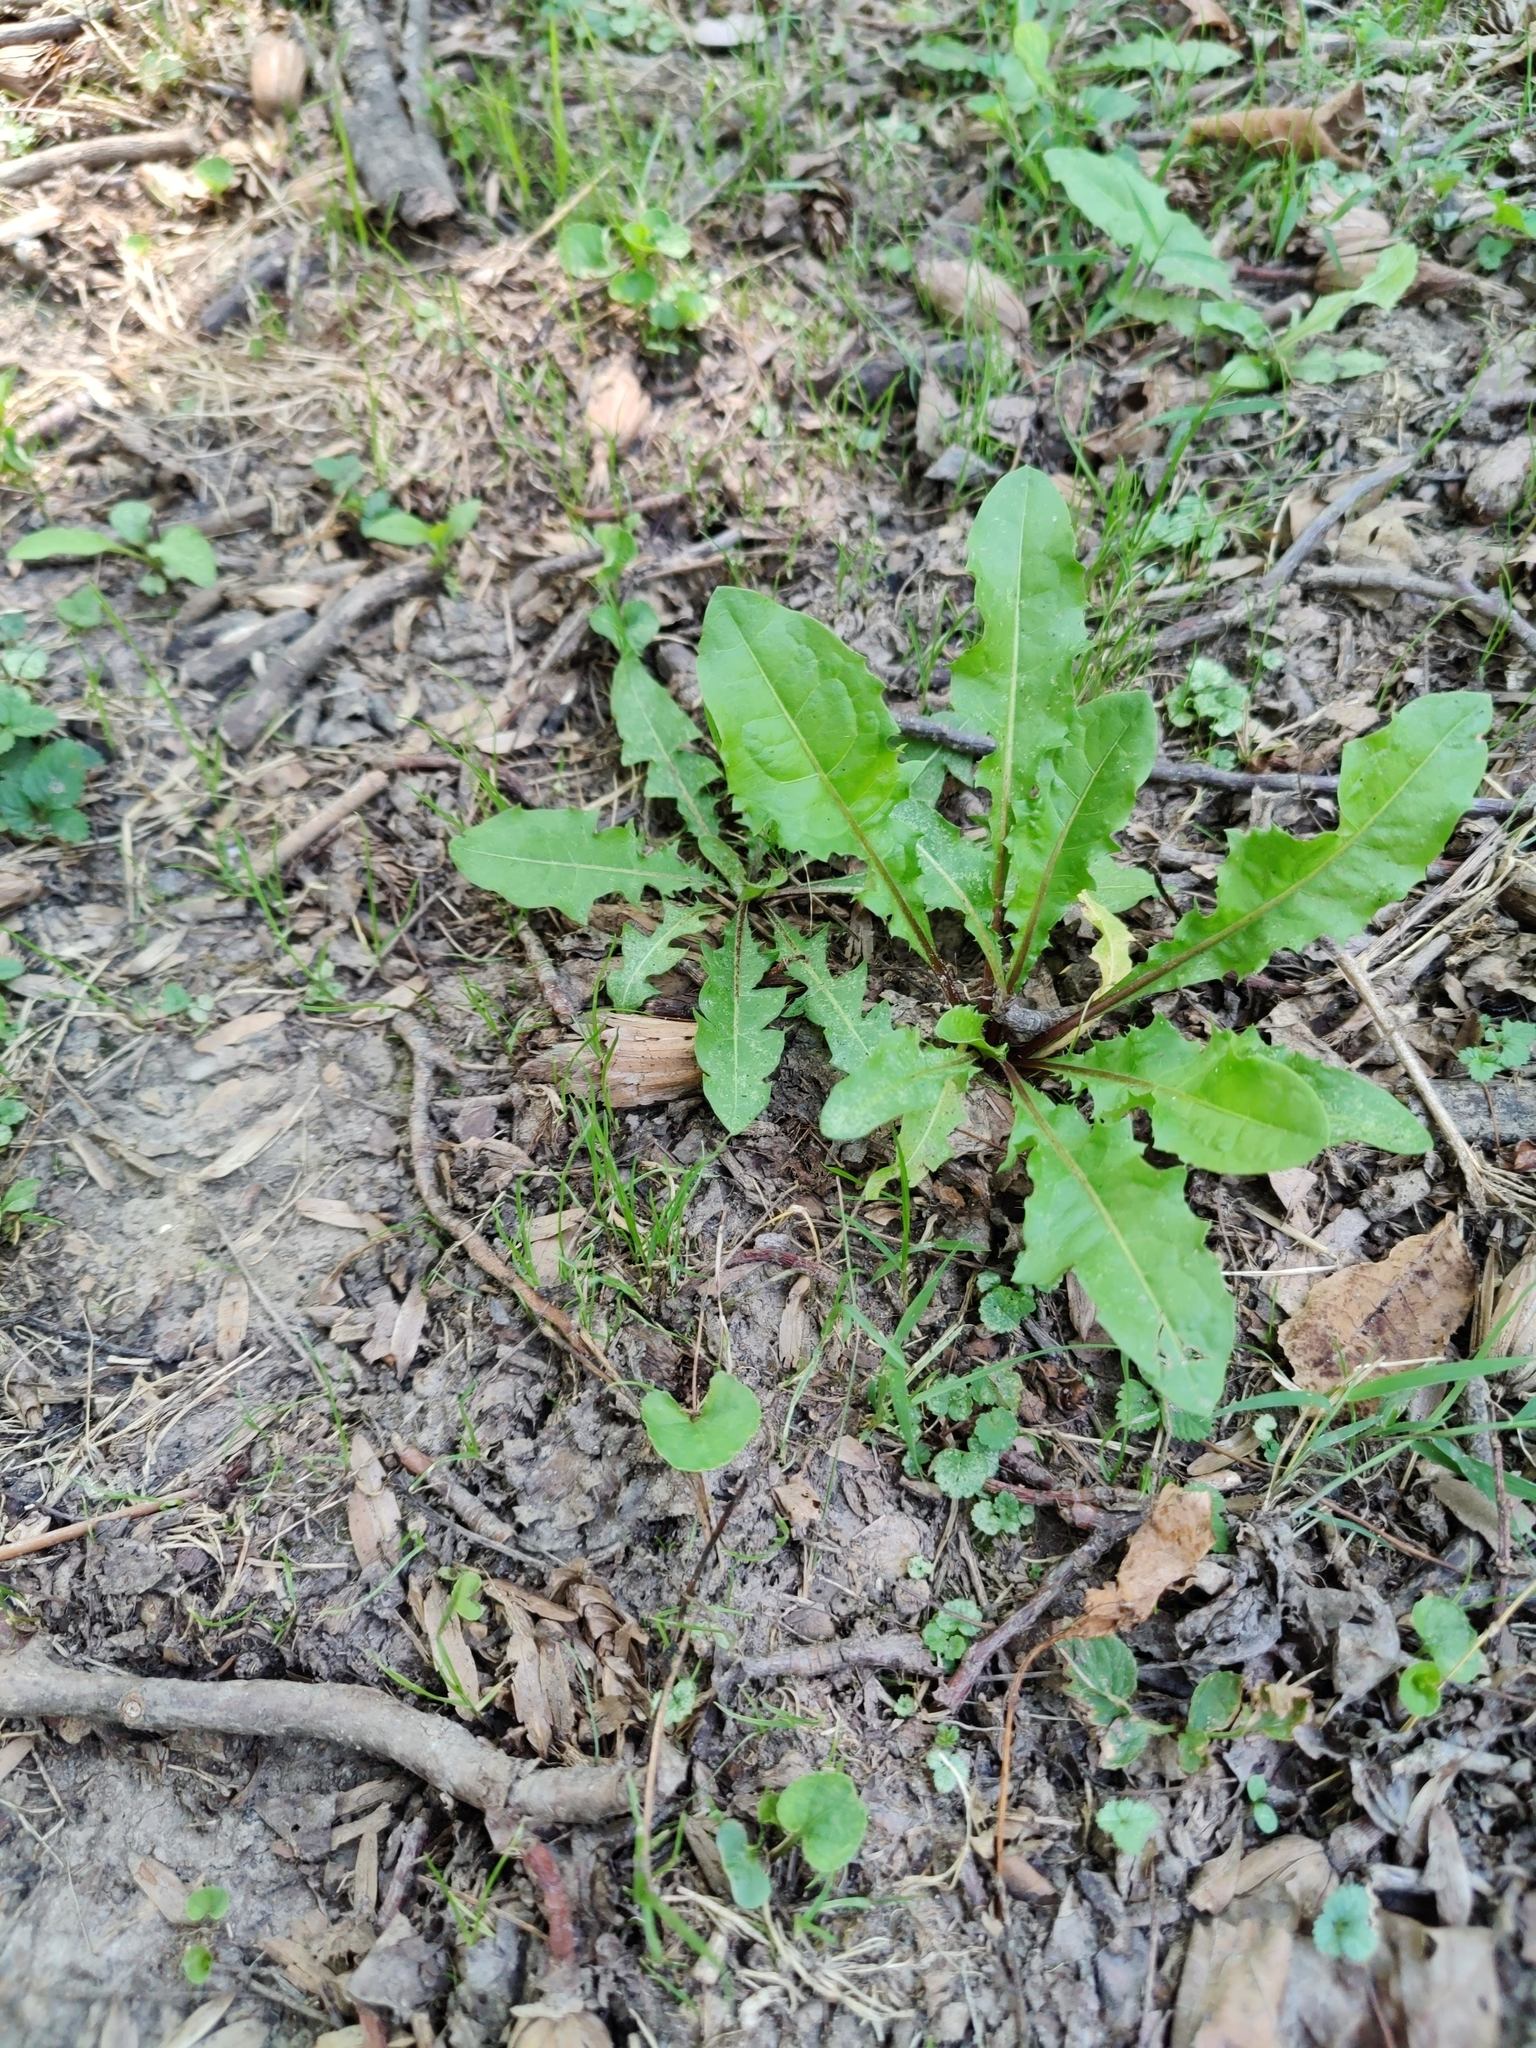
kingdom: Plantae
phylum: Tracheophyta
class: Magnoliopsida
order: Asterales
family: Asteraceae
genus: Taraxacum
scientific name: Taraxacum officinale
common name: Common dandelion
